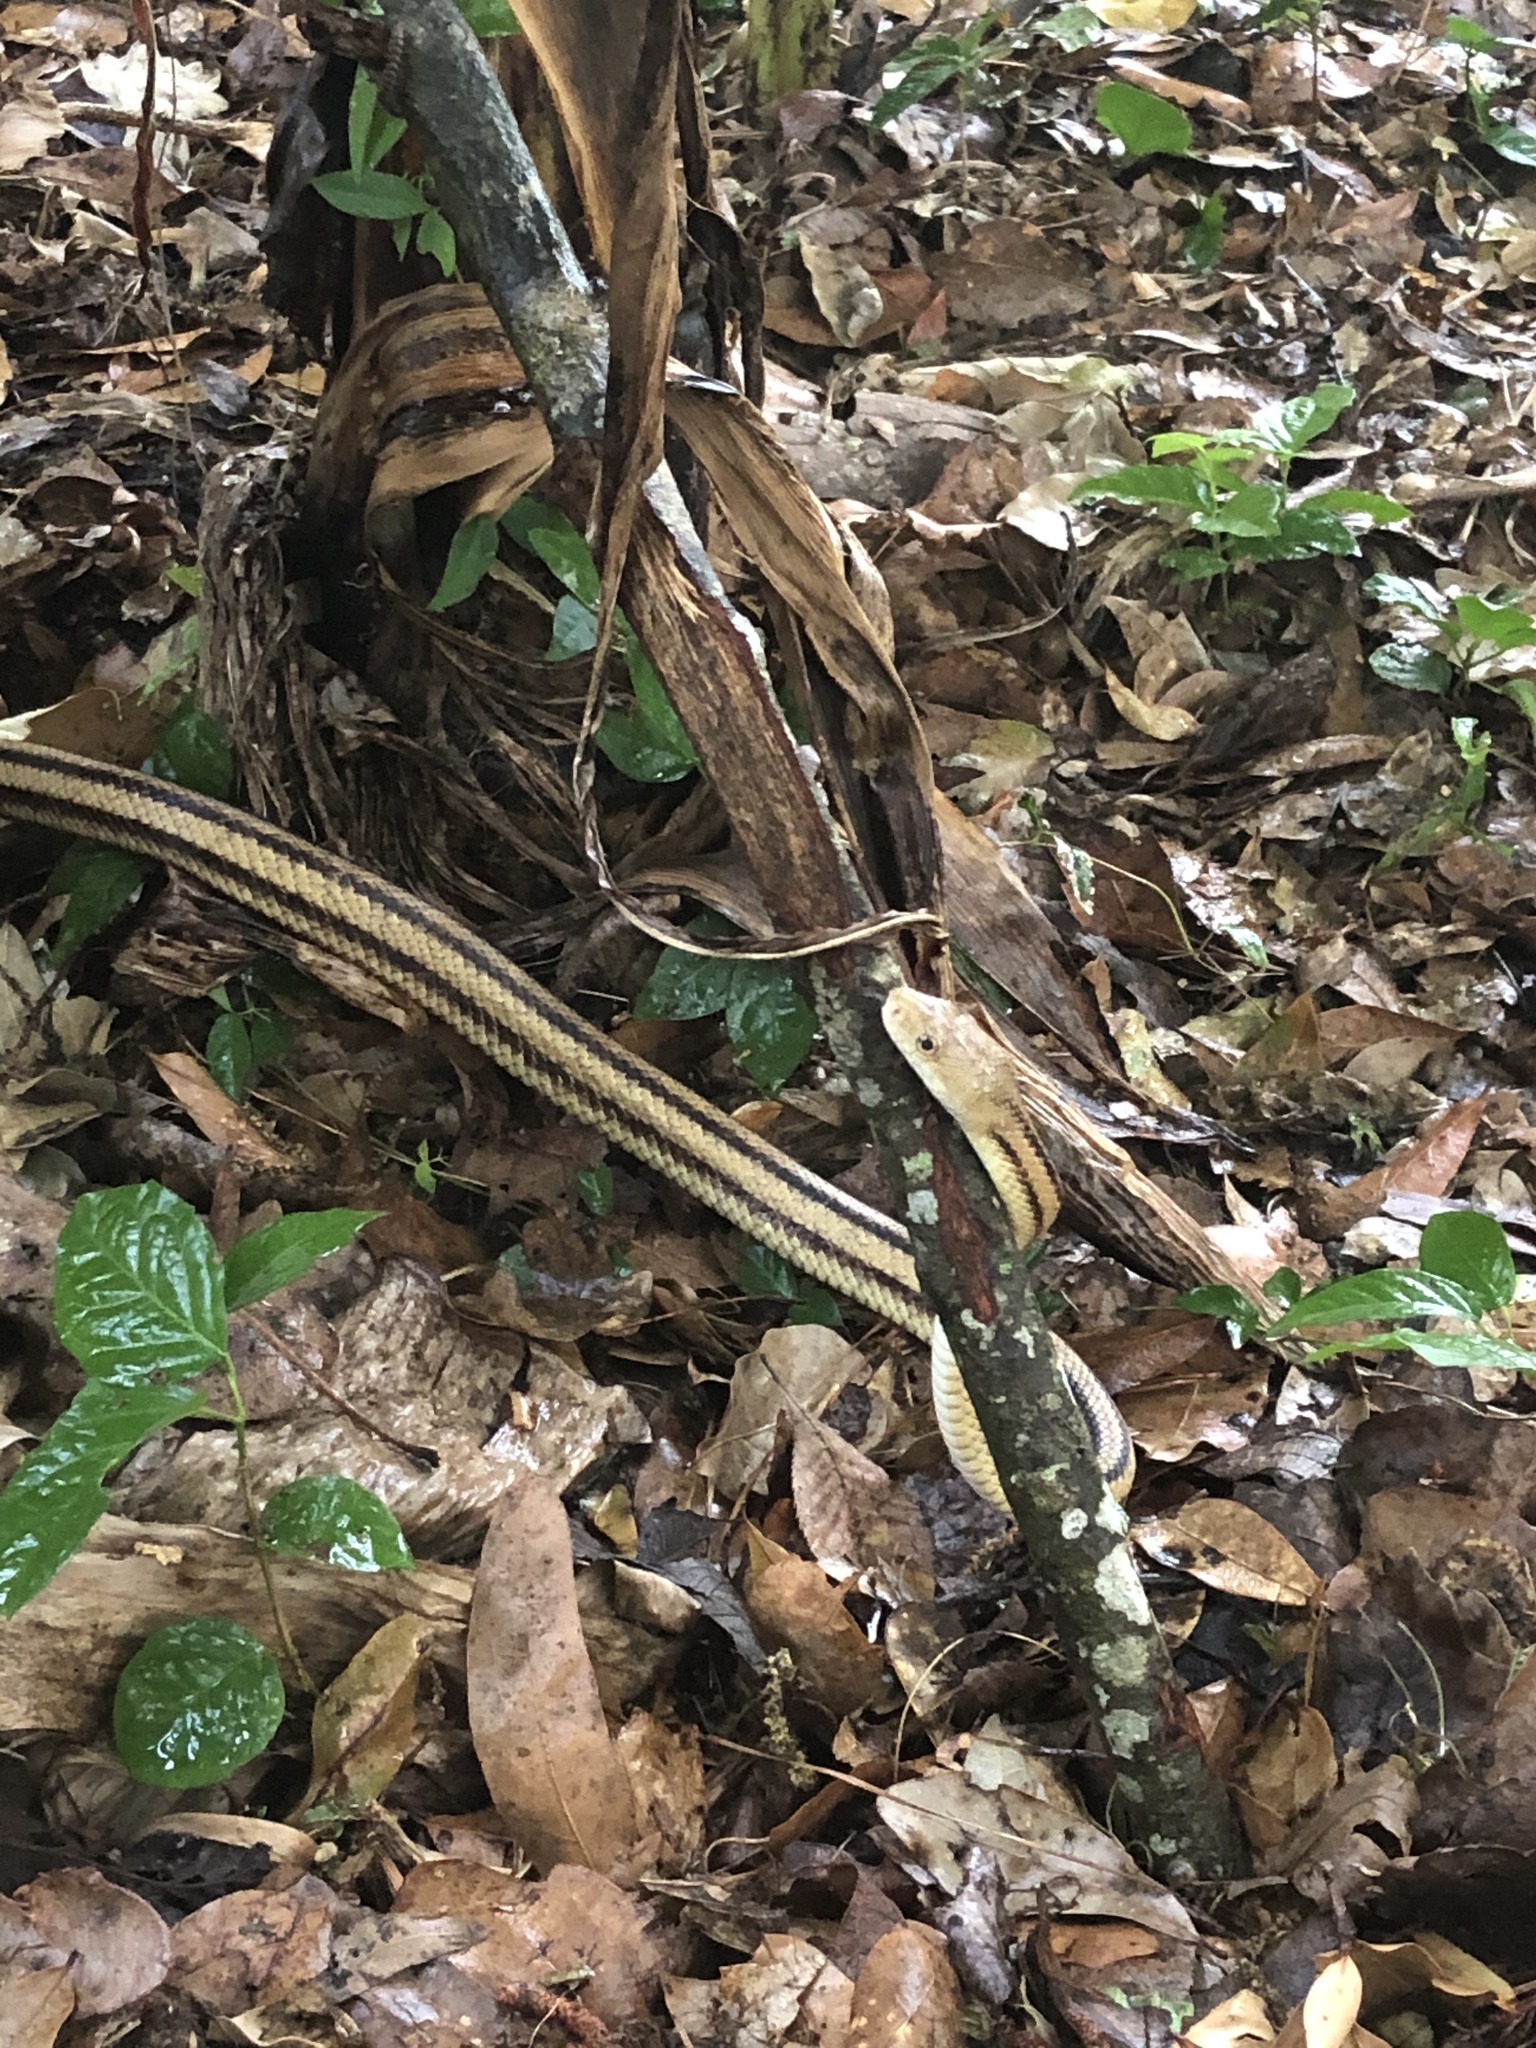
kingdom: Animalia
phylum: Chordata
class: Squamata
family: Colubridae
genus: Pantherophis
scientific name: Pantherophis alleghaniensis
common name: Eastern rat snake
